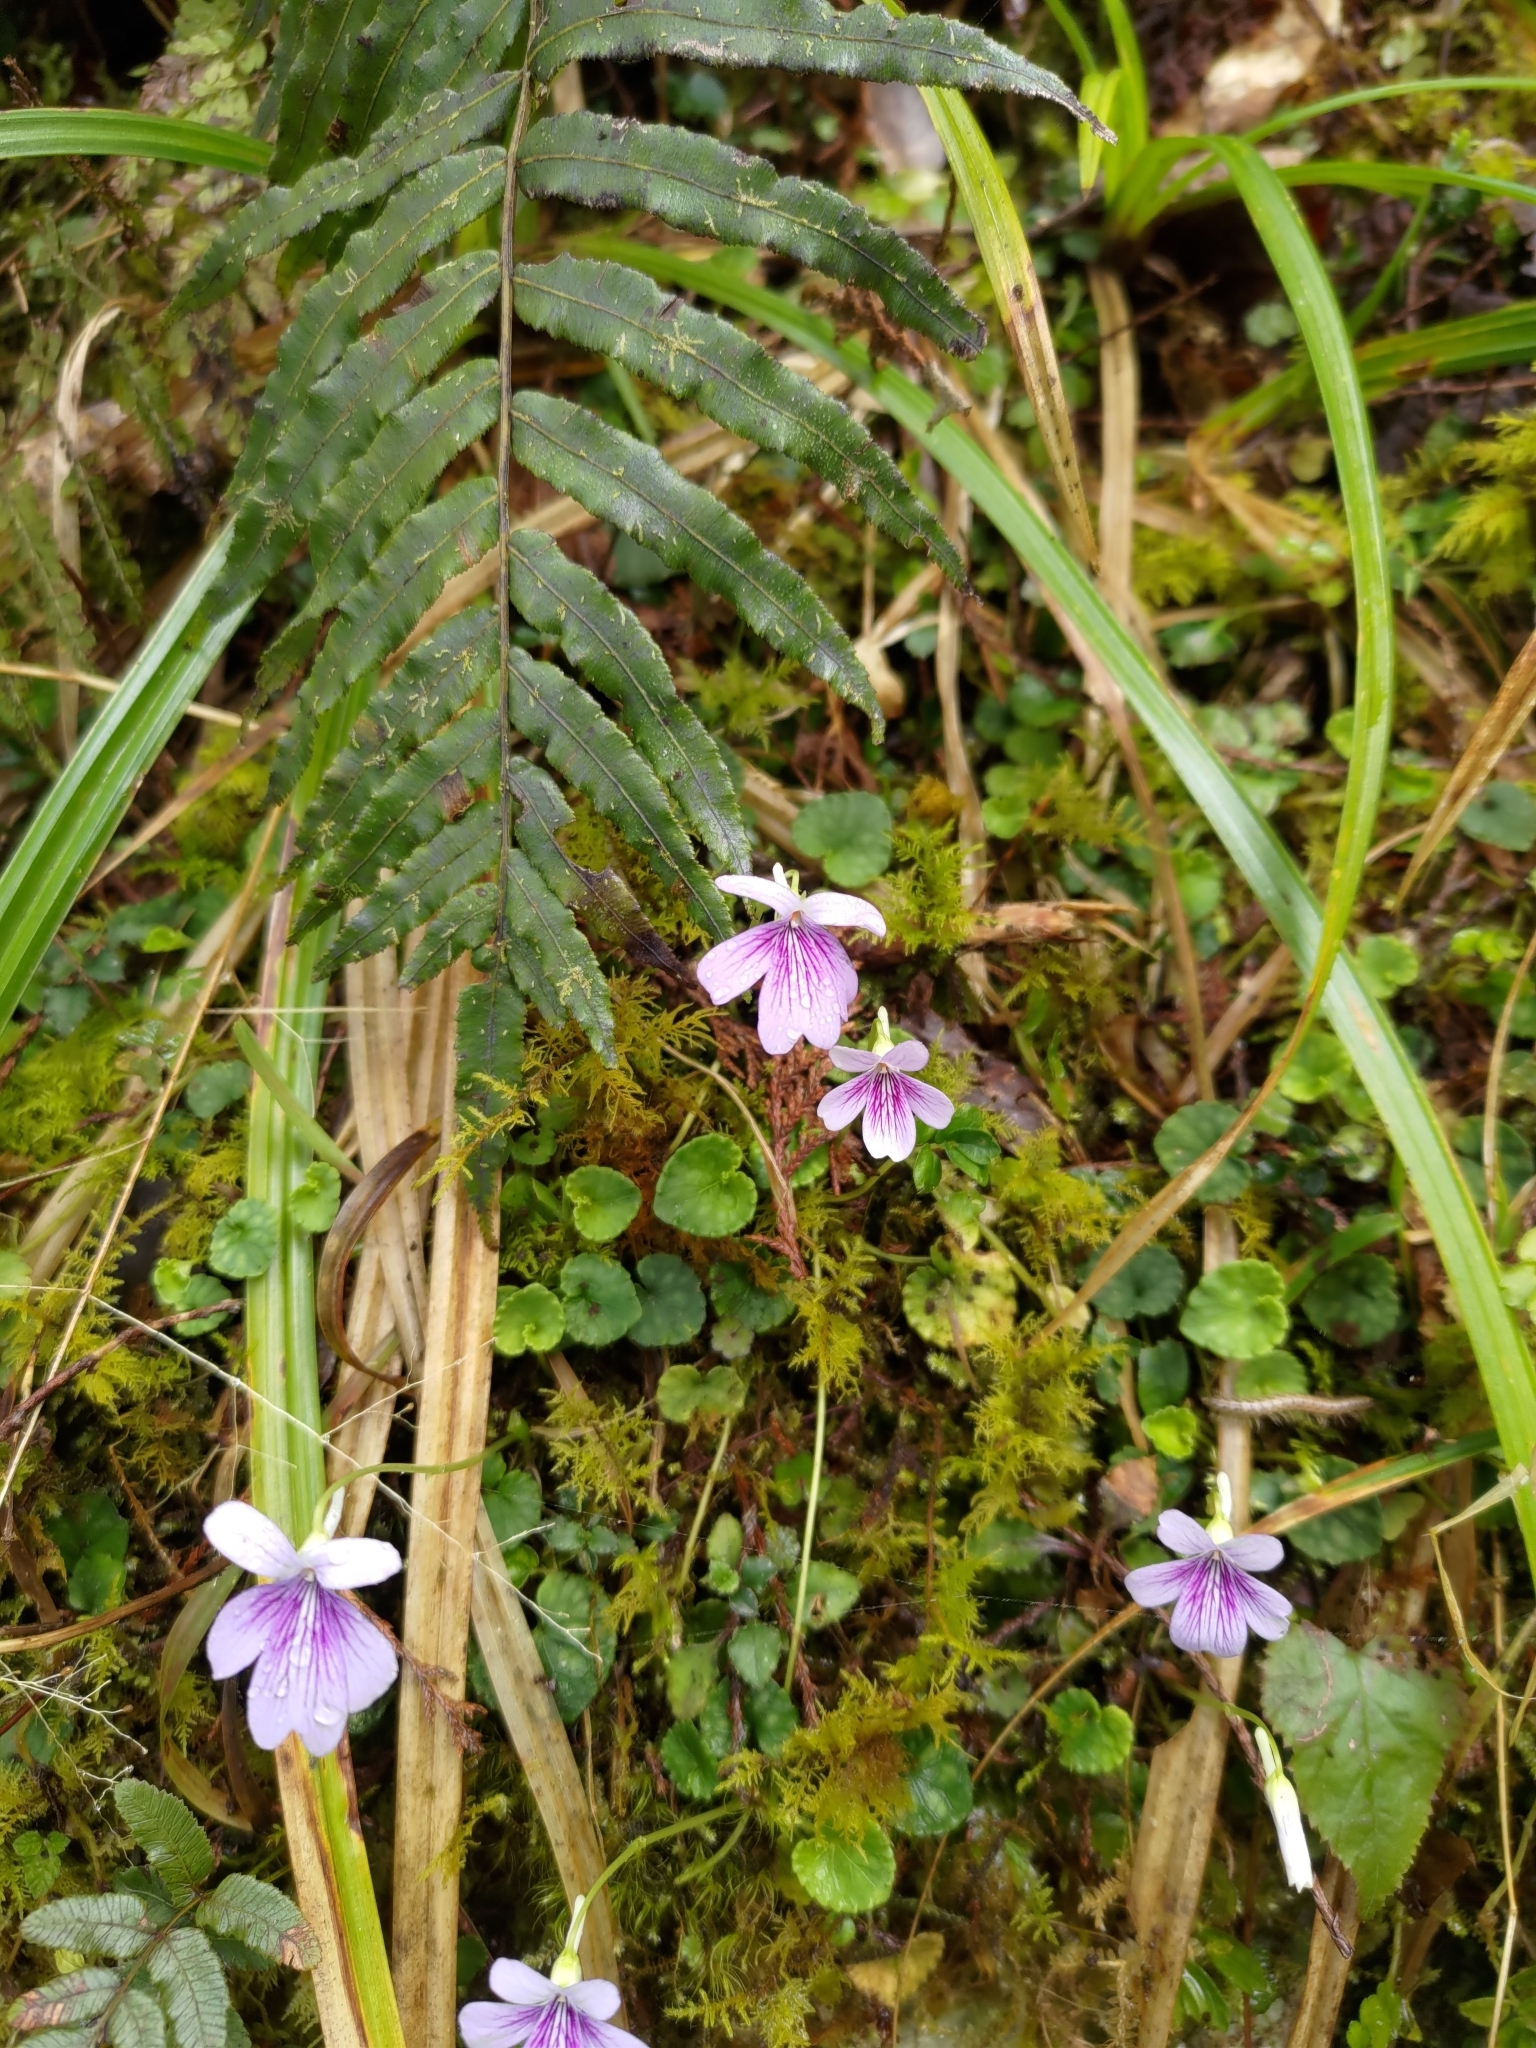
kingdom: Plantae
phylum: Tracheophyta
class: Magnoliopsida
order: Malpighiales
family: Violaceae
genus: Viola
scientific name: Viola formosana
